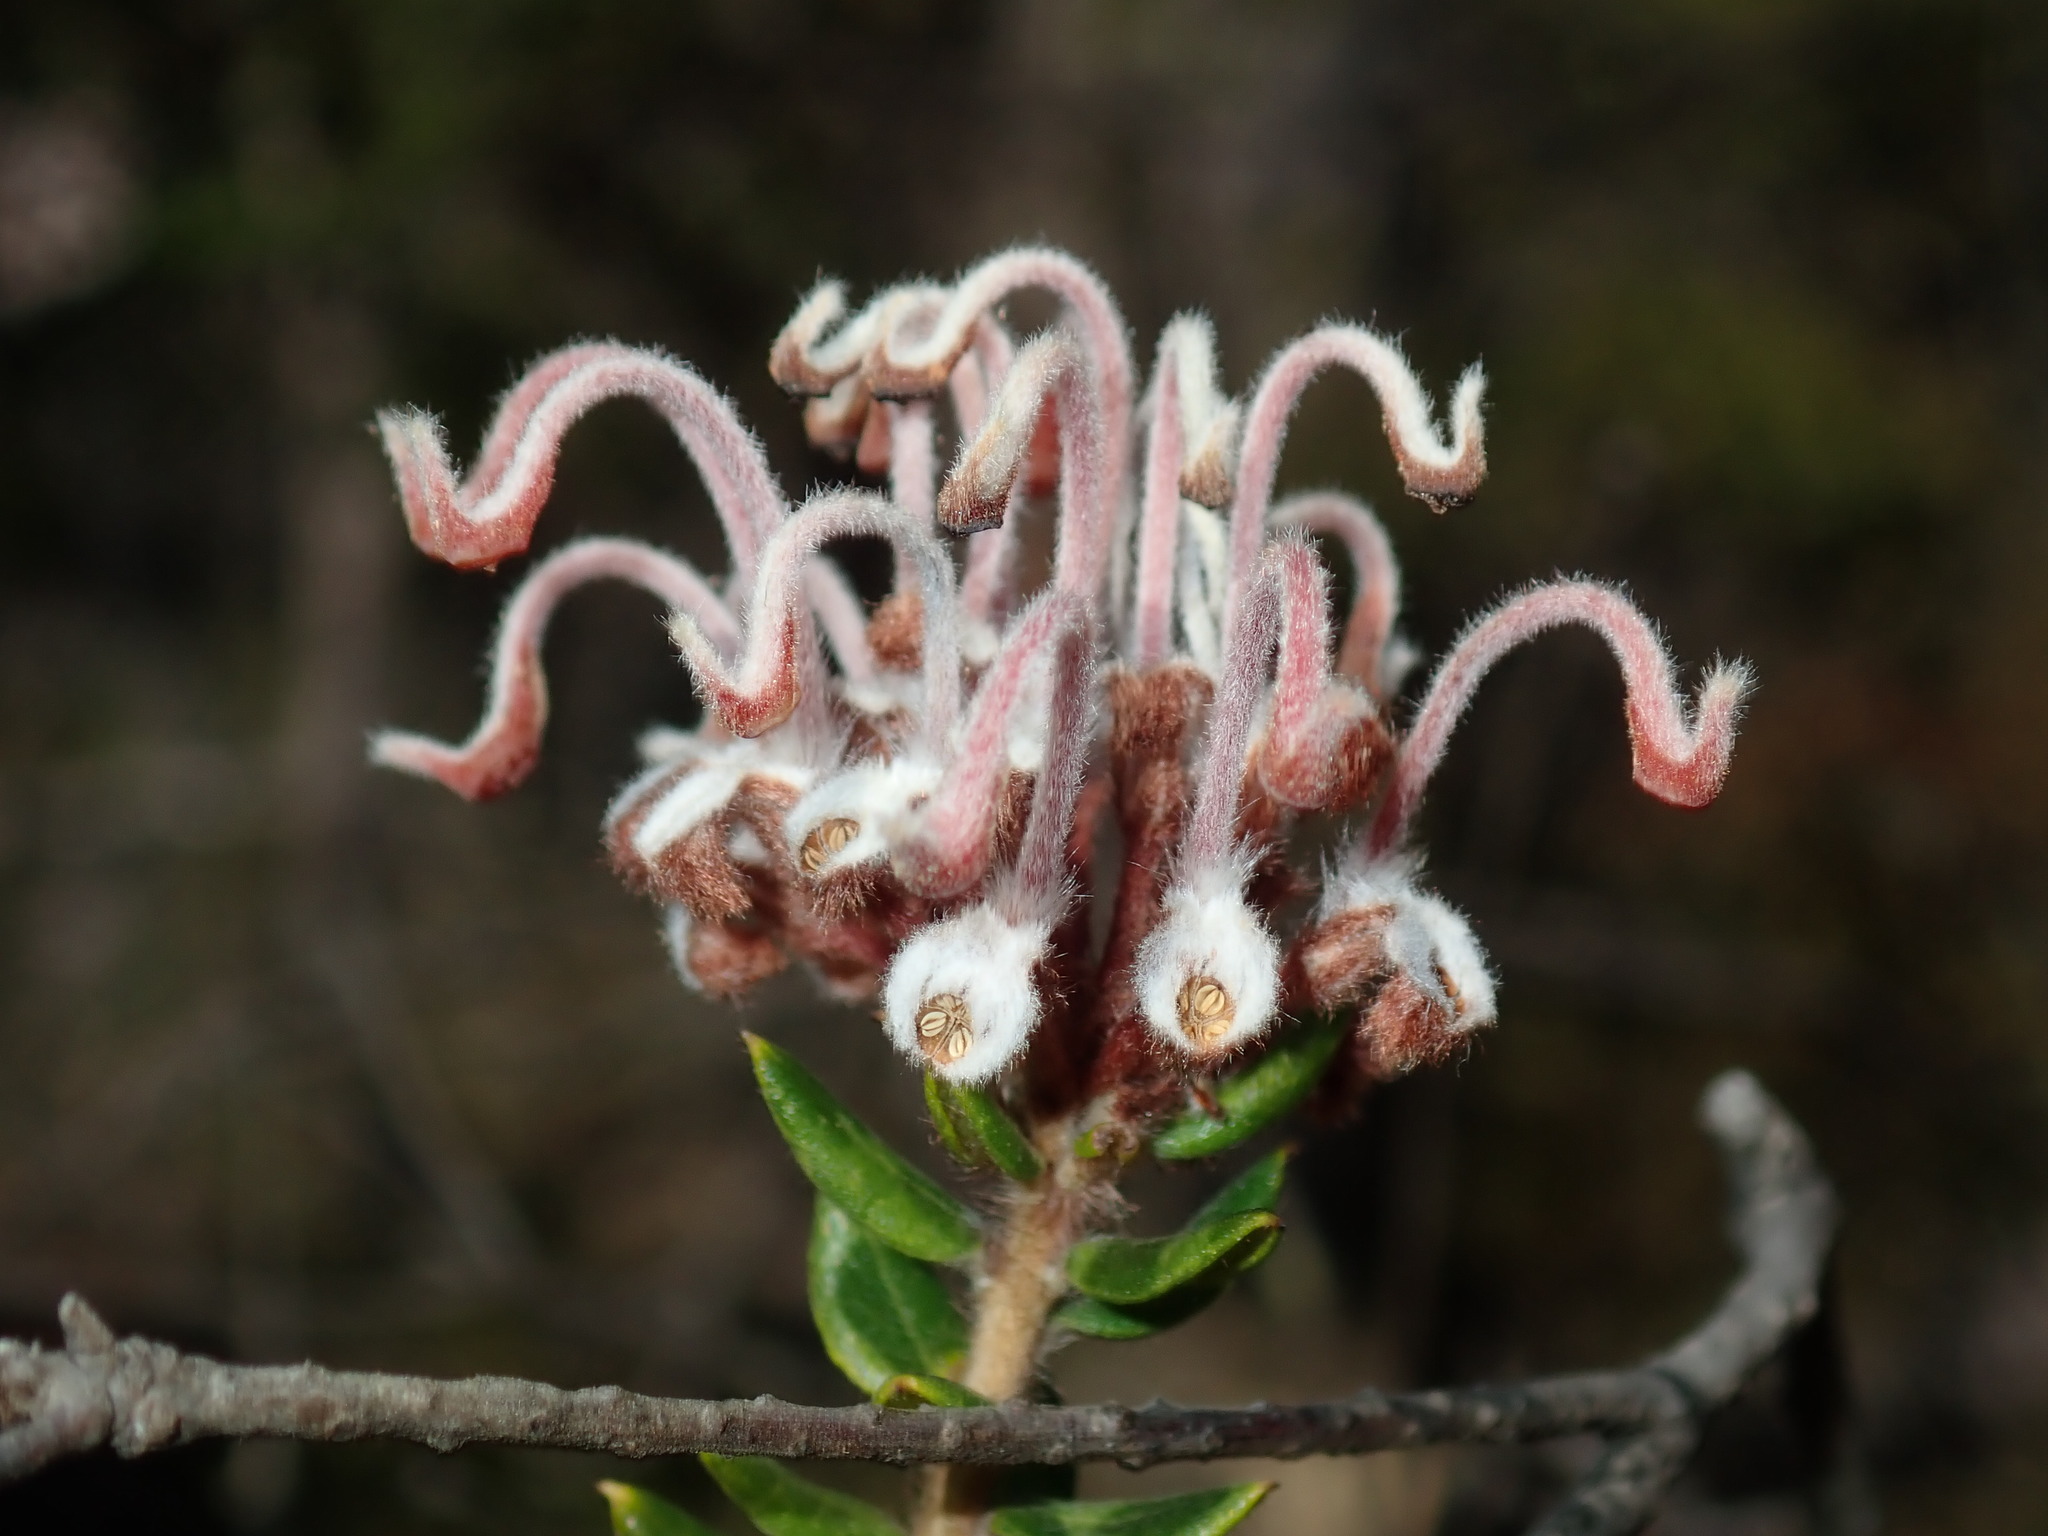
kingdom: Plantae
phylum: Tracheophyta
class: Magnoliopsida
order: Proteales
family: Proteaceae
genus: Grevillea
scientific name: Grevillea buxifolia
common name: Grey spiderflower
